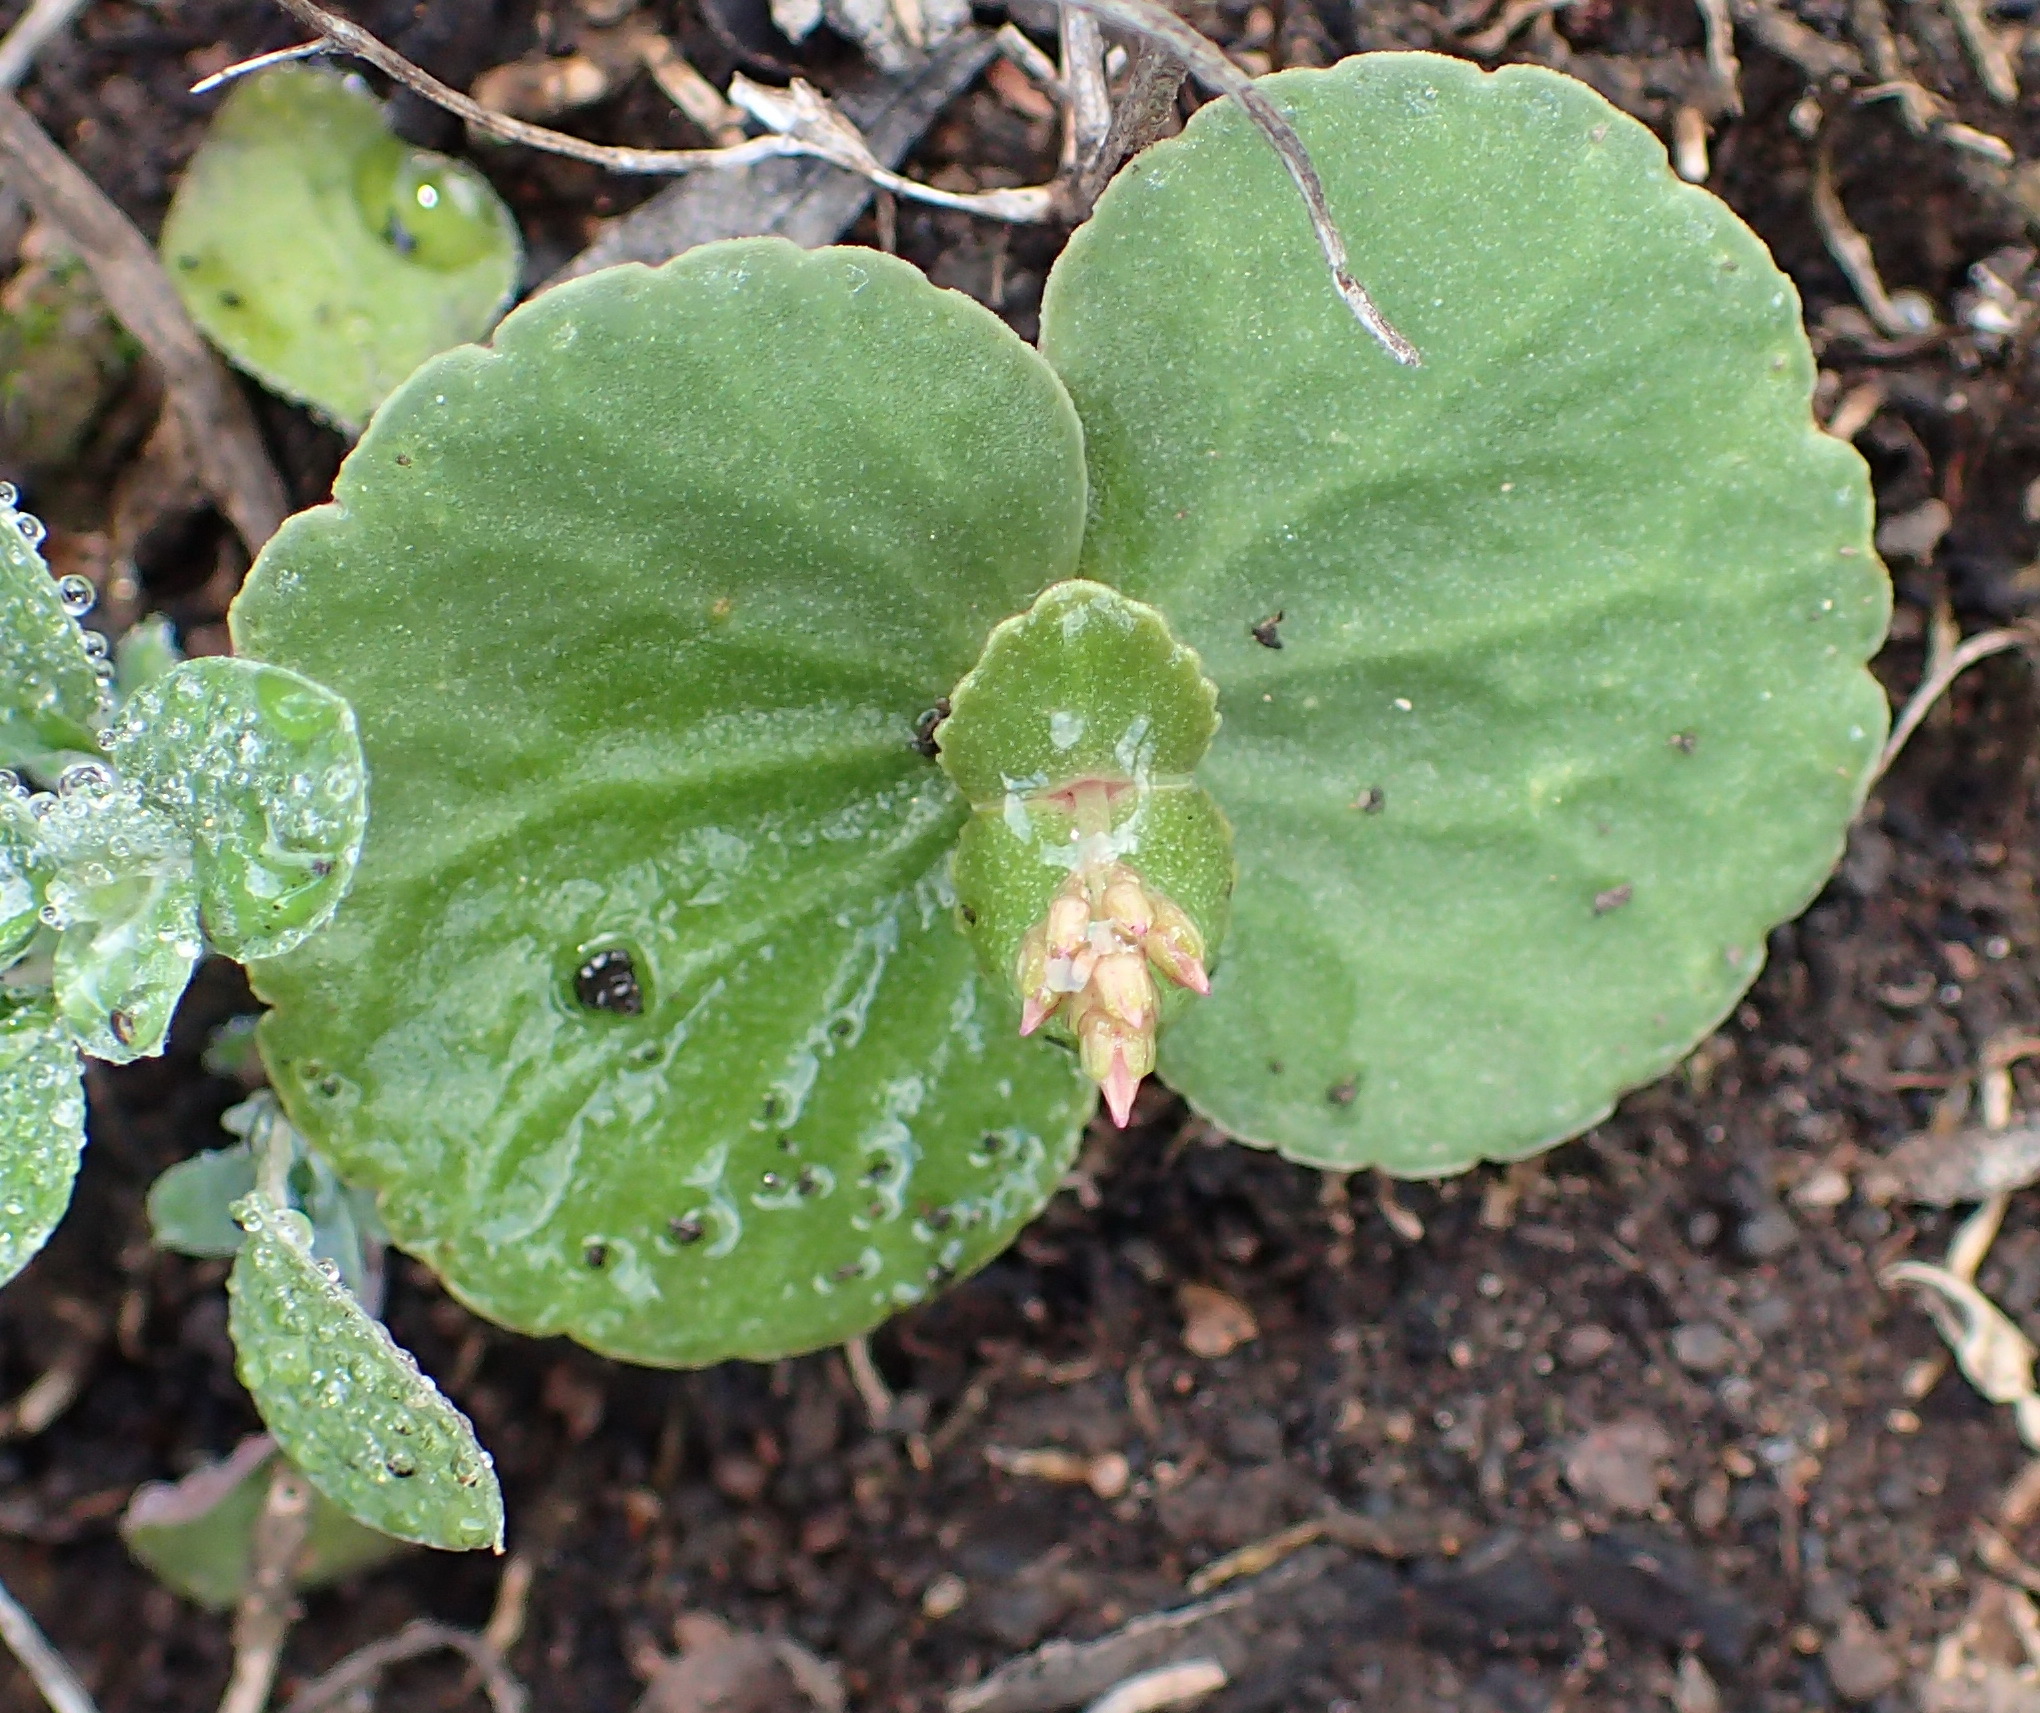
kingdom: Plantae
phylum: Tracheophyta
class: Magnoliopsida
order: Saxifragales
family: Crassulaceae
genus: Crassula
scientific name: Crassula umbella
